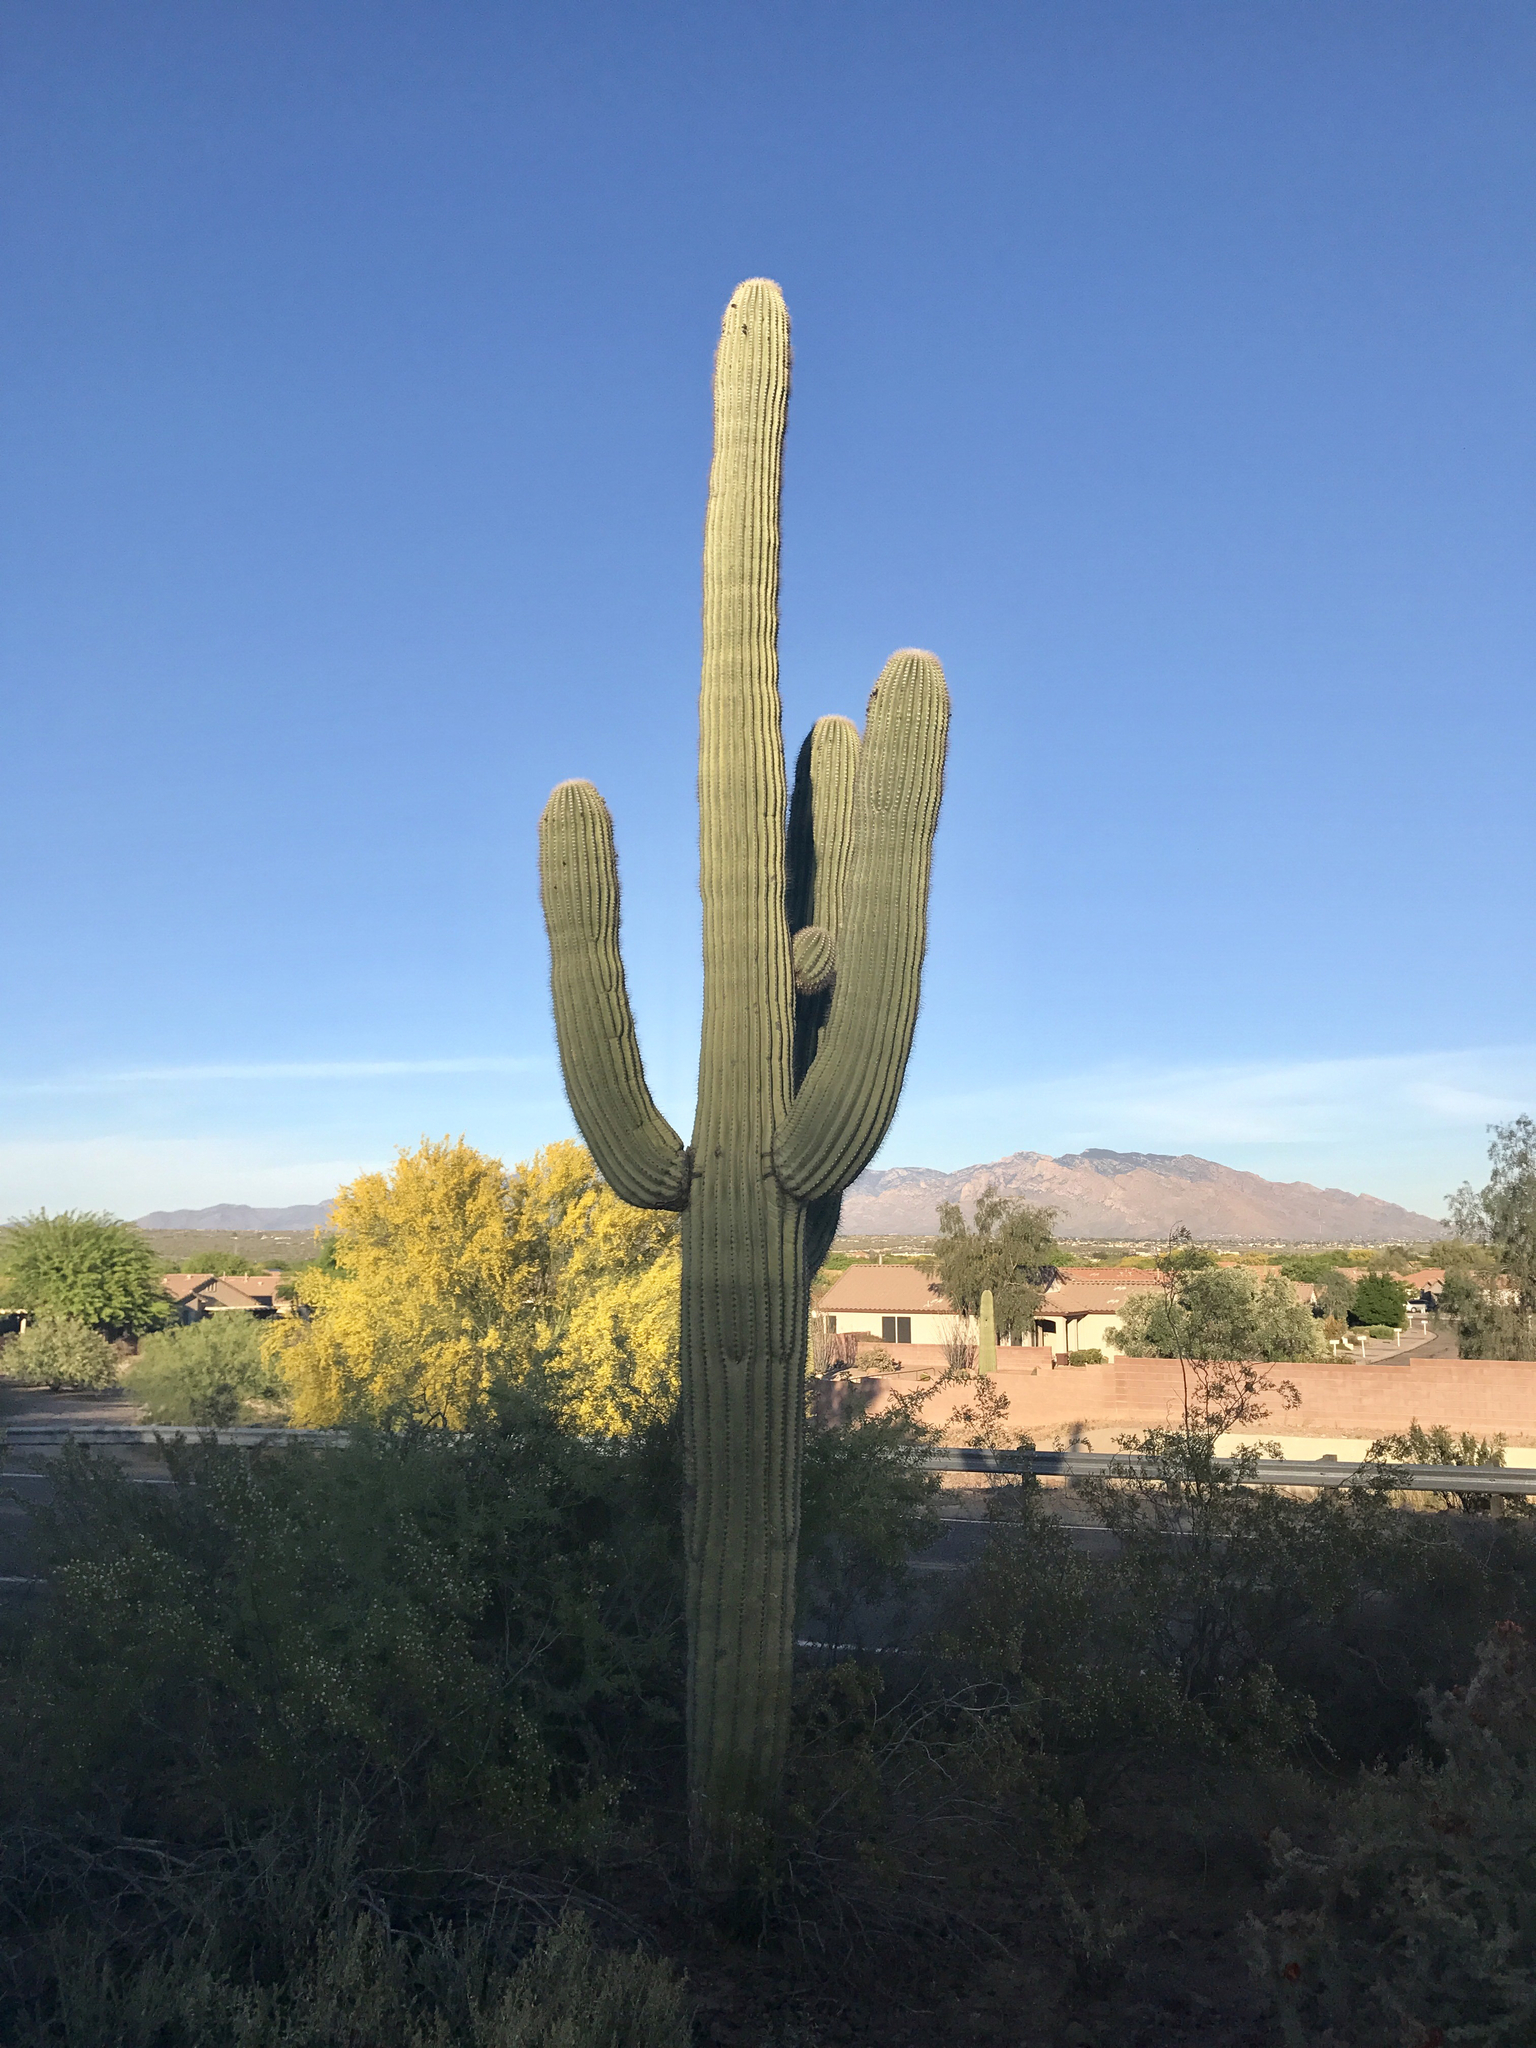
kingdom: Plantae
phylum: Tracheophyta
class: Magnoliopsida
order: Caryophyllales
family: Cactaceae
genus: Carnegiea
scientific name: Carnegiea gigantea
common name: Saguaro
